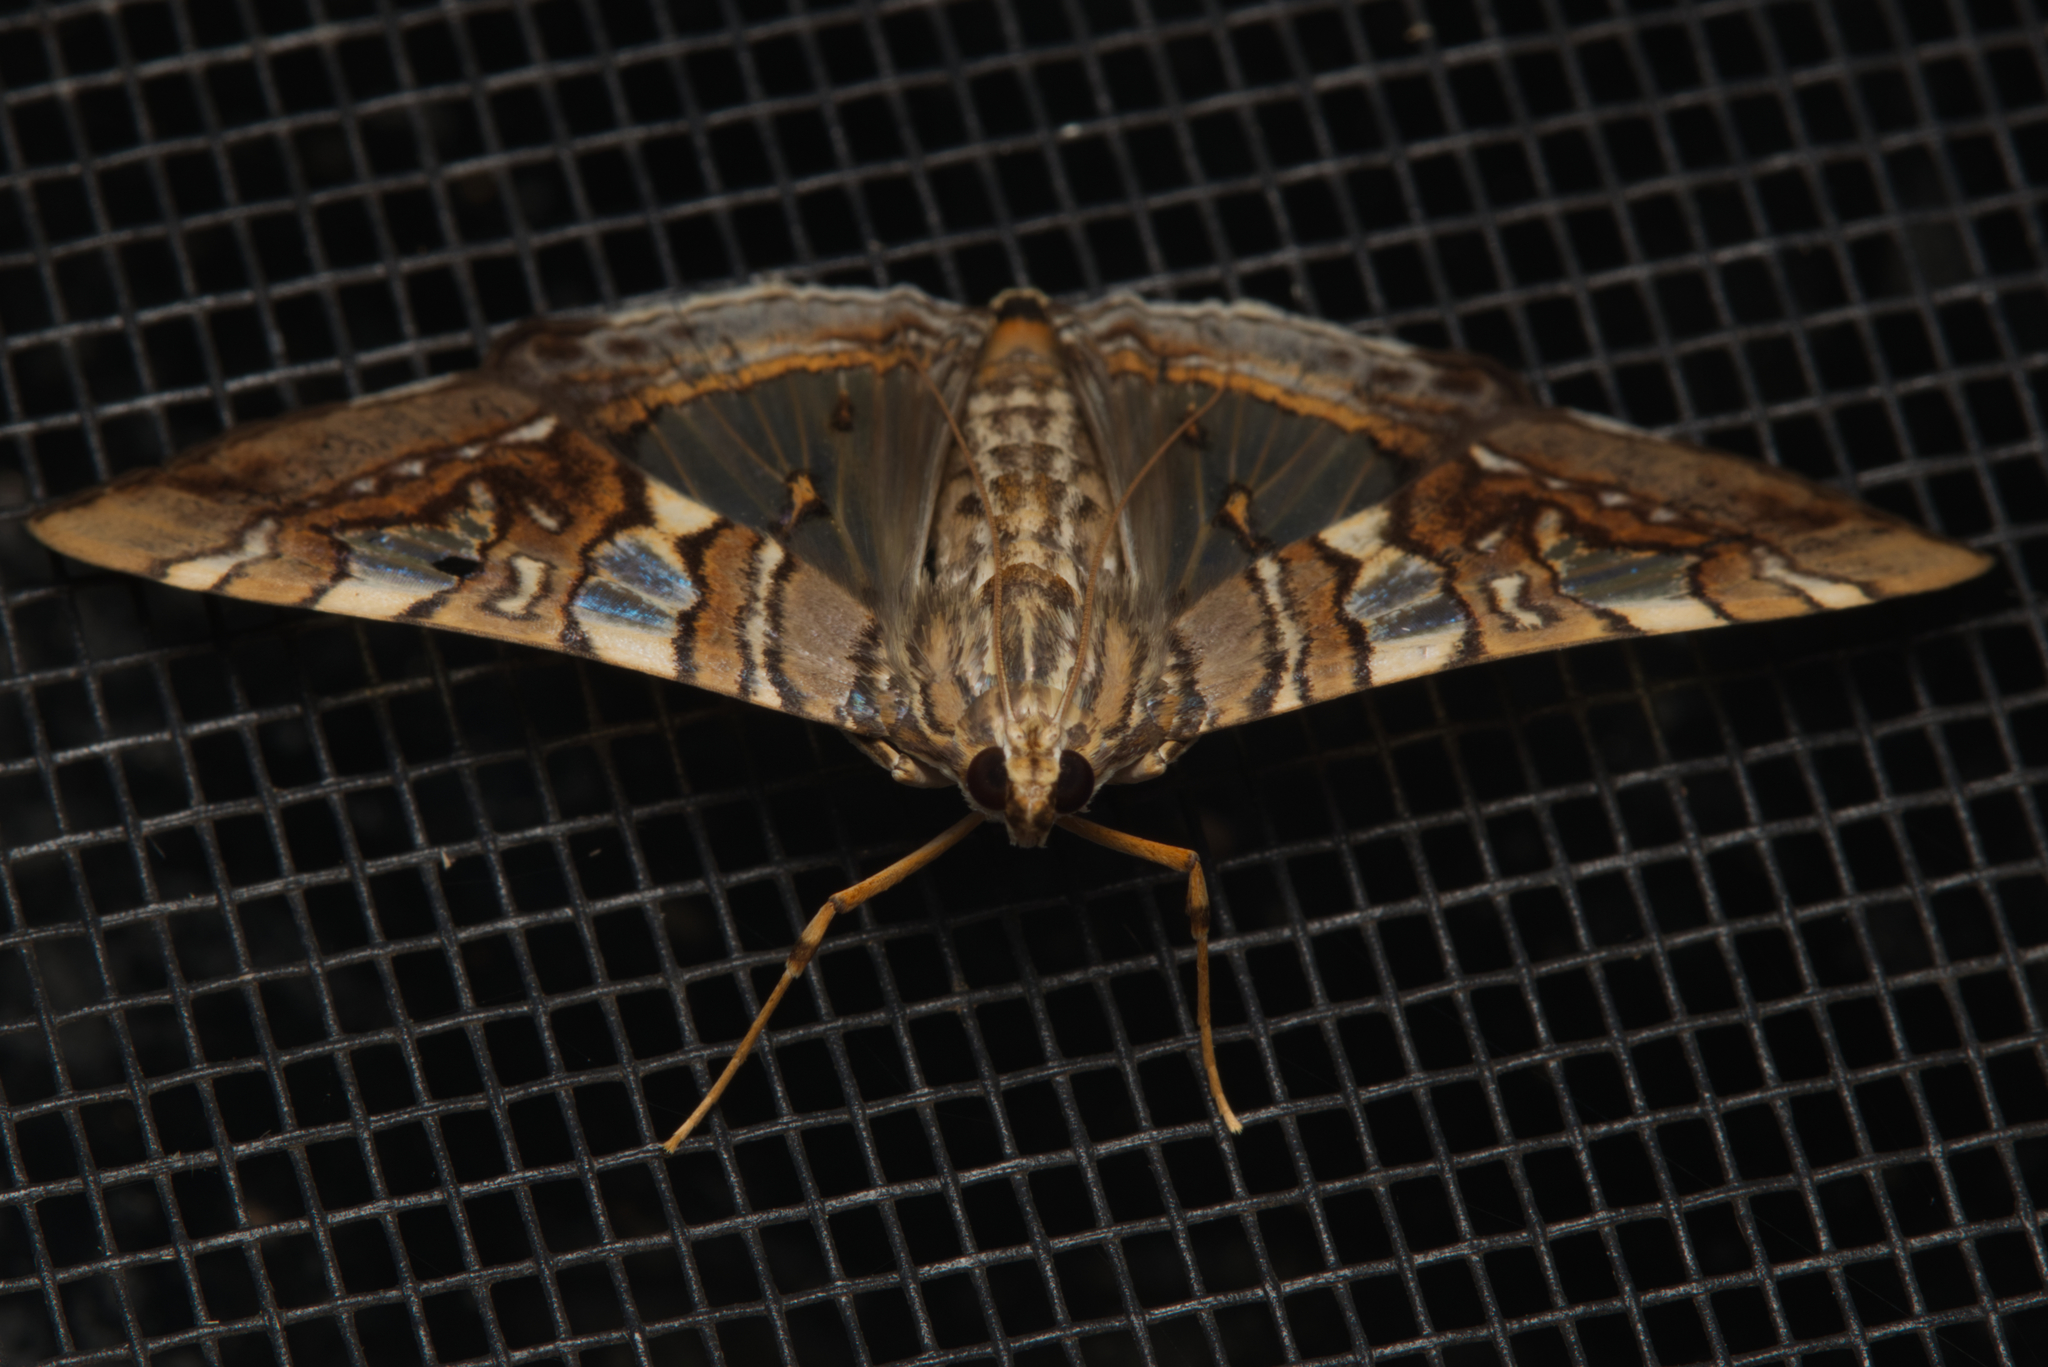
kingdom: Animalia
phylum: Arthropoda
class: Insecta
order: Lepidoptera
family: Crambidae
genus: Glyphodes
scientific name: Glyphodes cosmarcha
